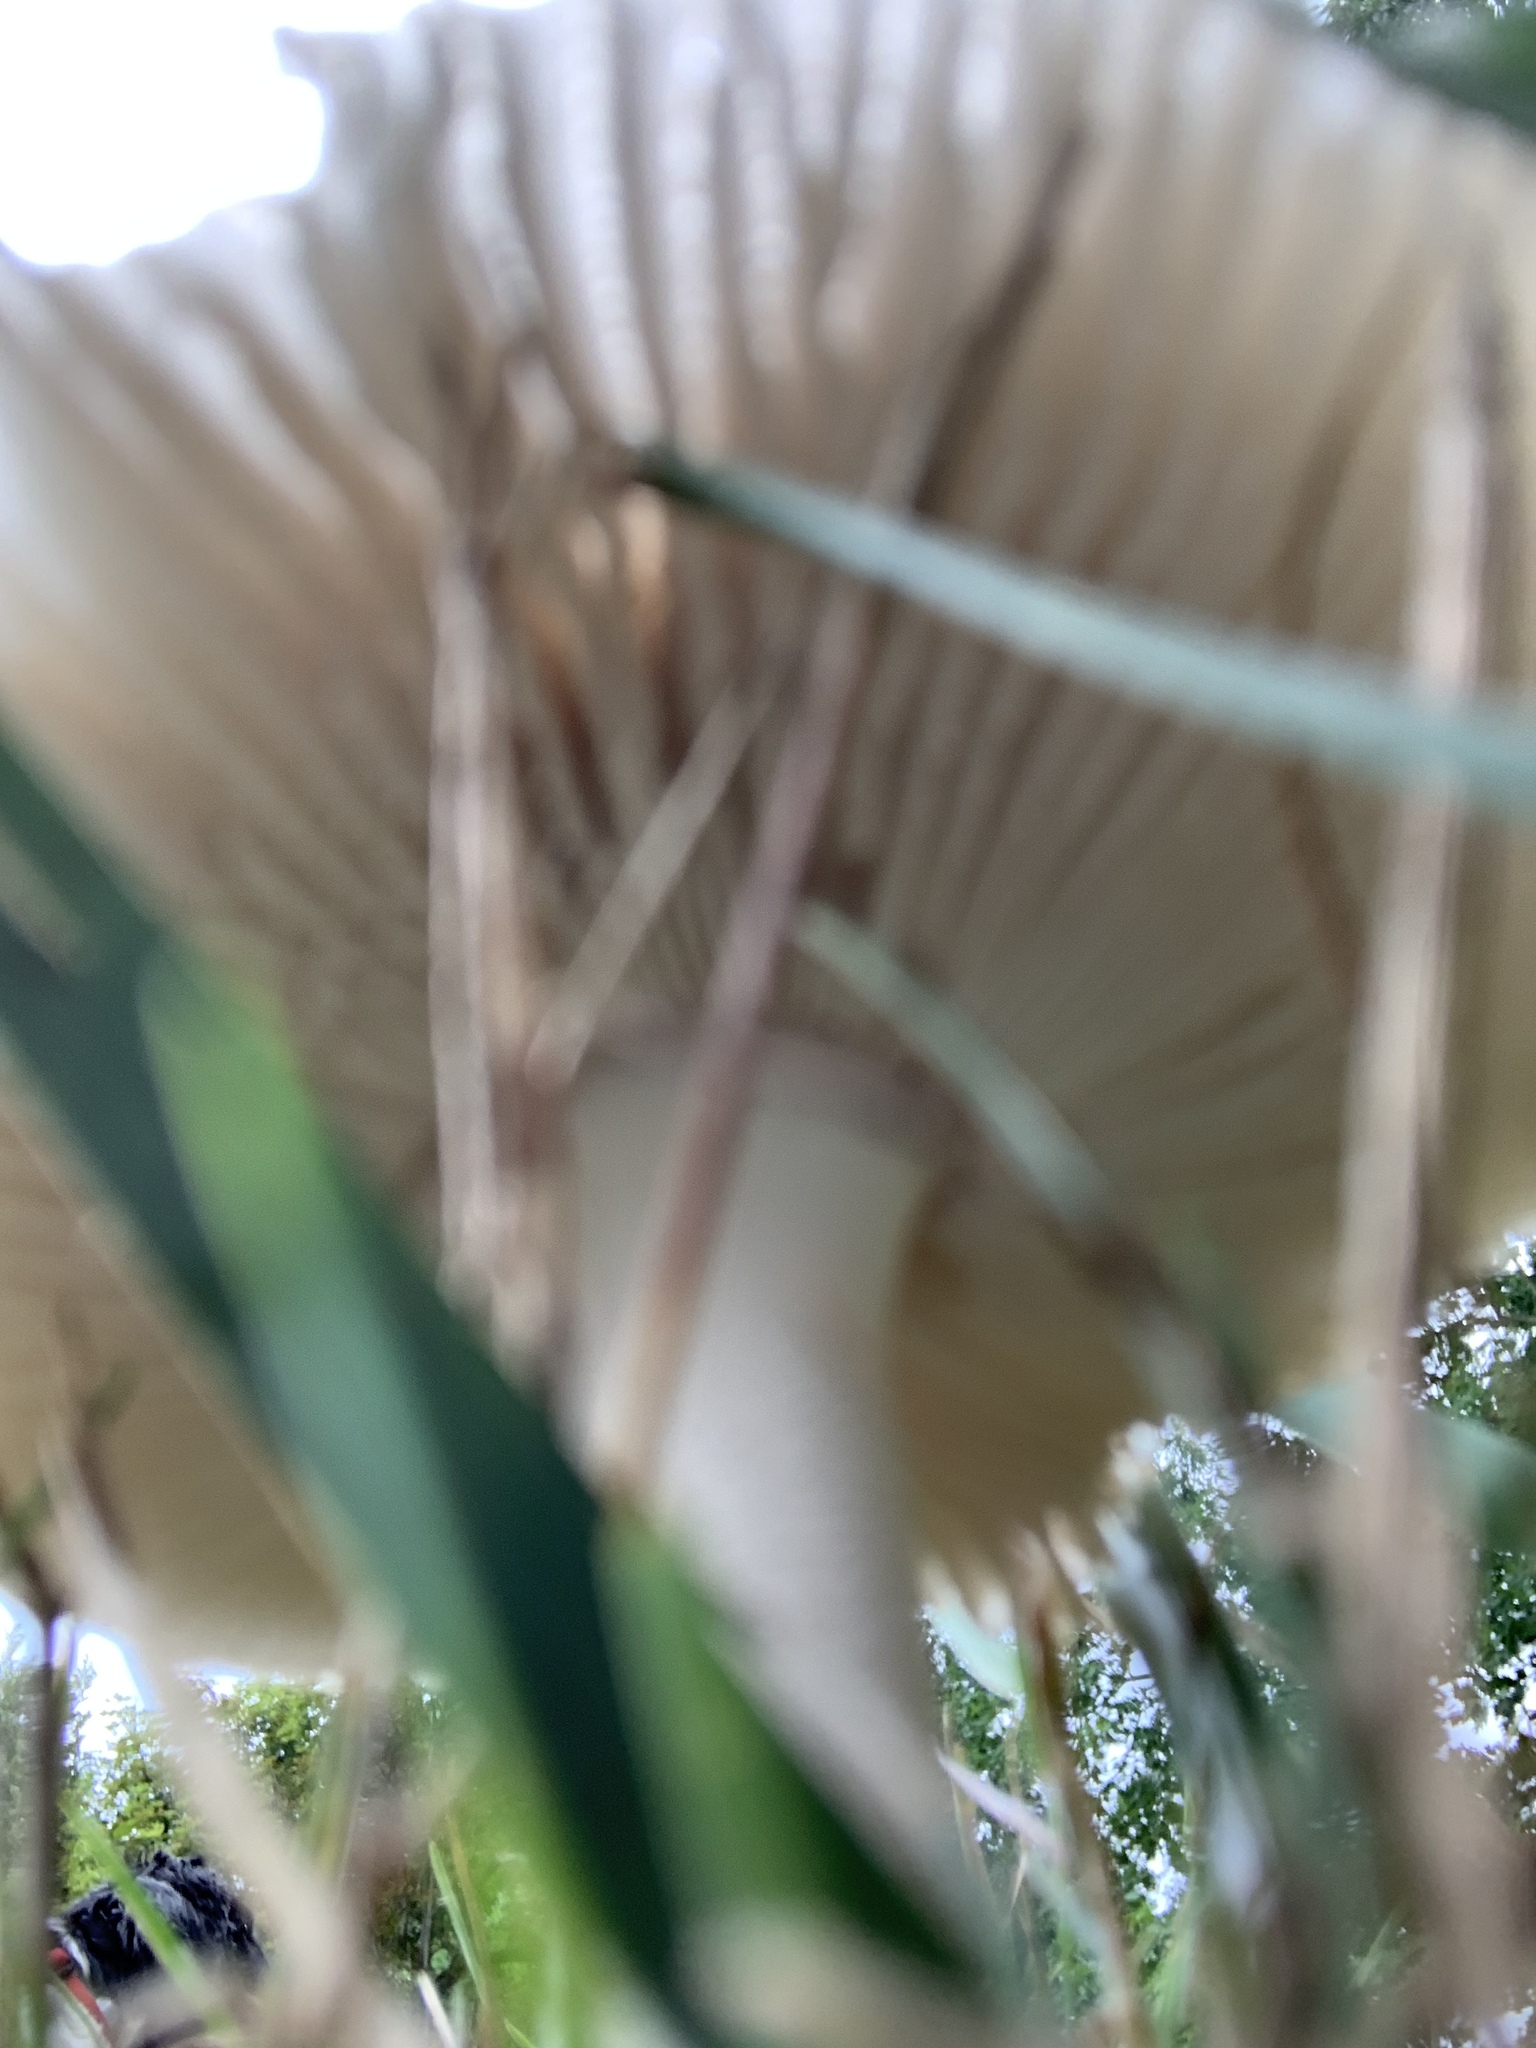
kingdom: Fungi
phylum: Basidiomycota
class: Agaricomycetes
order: Agaricales
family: Amanitaceae
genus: Amanita
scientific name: Amanita vaginata
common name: Grisette
